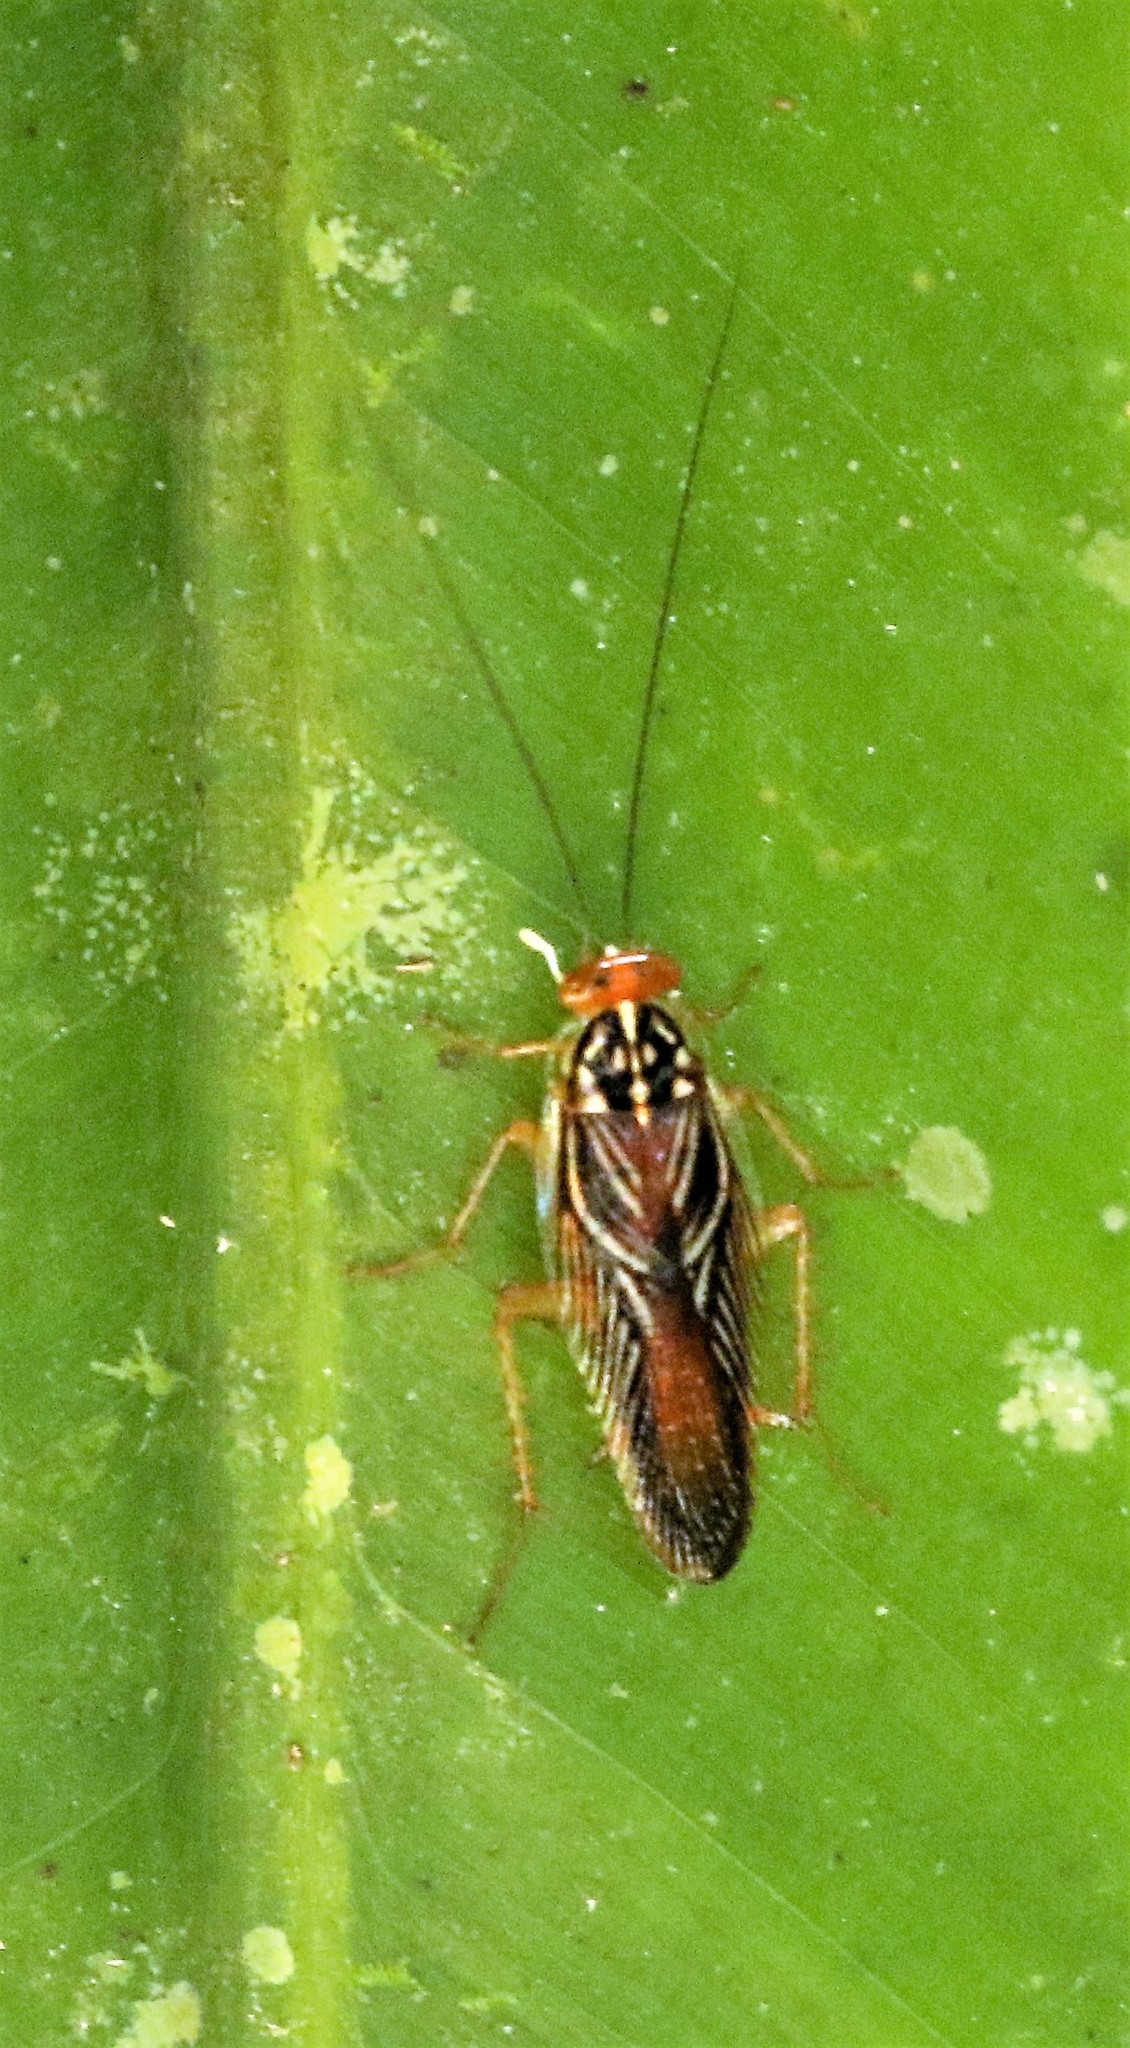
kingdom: Animalia
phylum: Arthropoda
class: Insecta
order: Blattodea
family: Ectobiidae
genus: Euphyllodromia
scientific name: Euphyllodromia angustata
